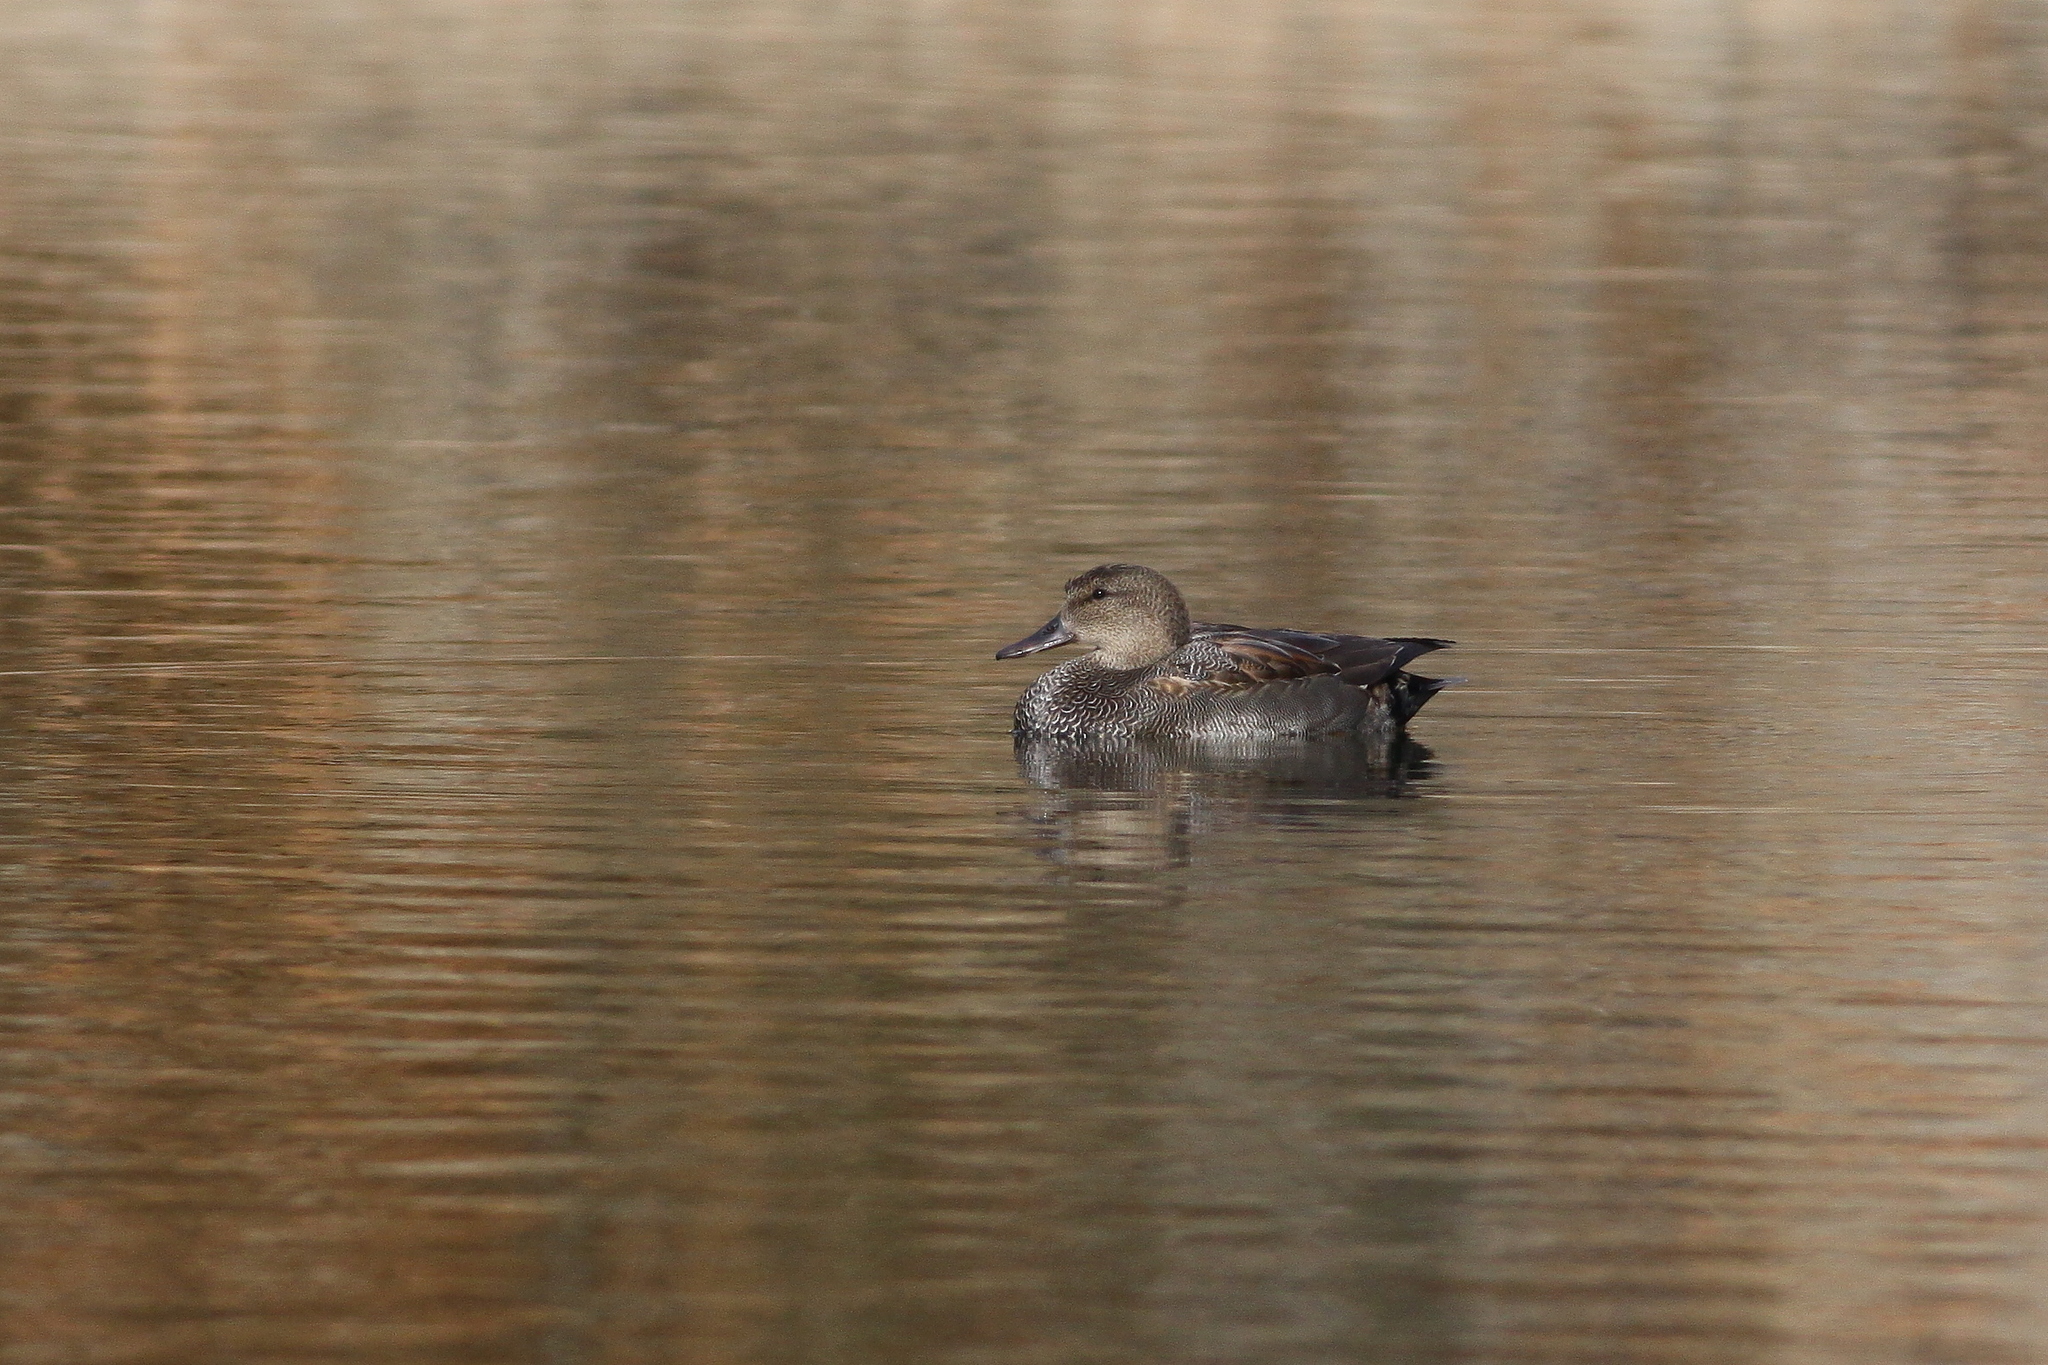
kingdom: Animalia
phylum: Chordata
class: Aves
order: Anseriformes
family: Anatidae
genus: Mareca
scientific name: Mareca strepera
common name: Gadwall
